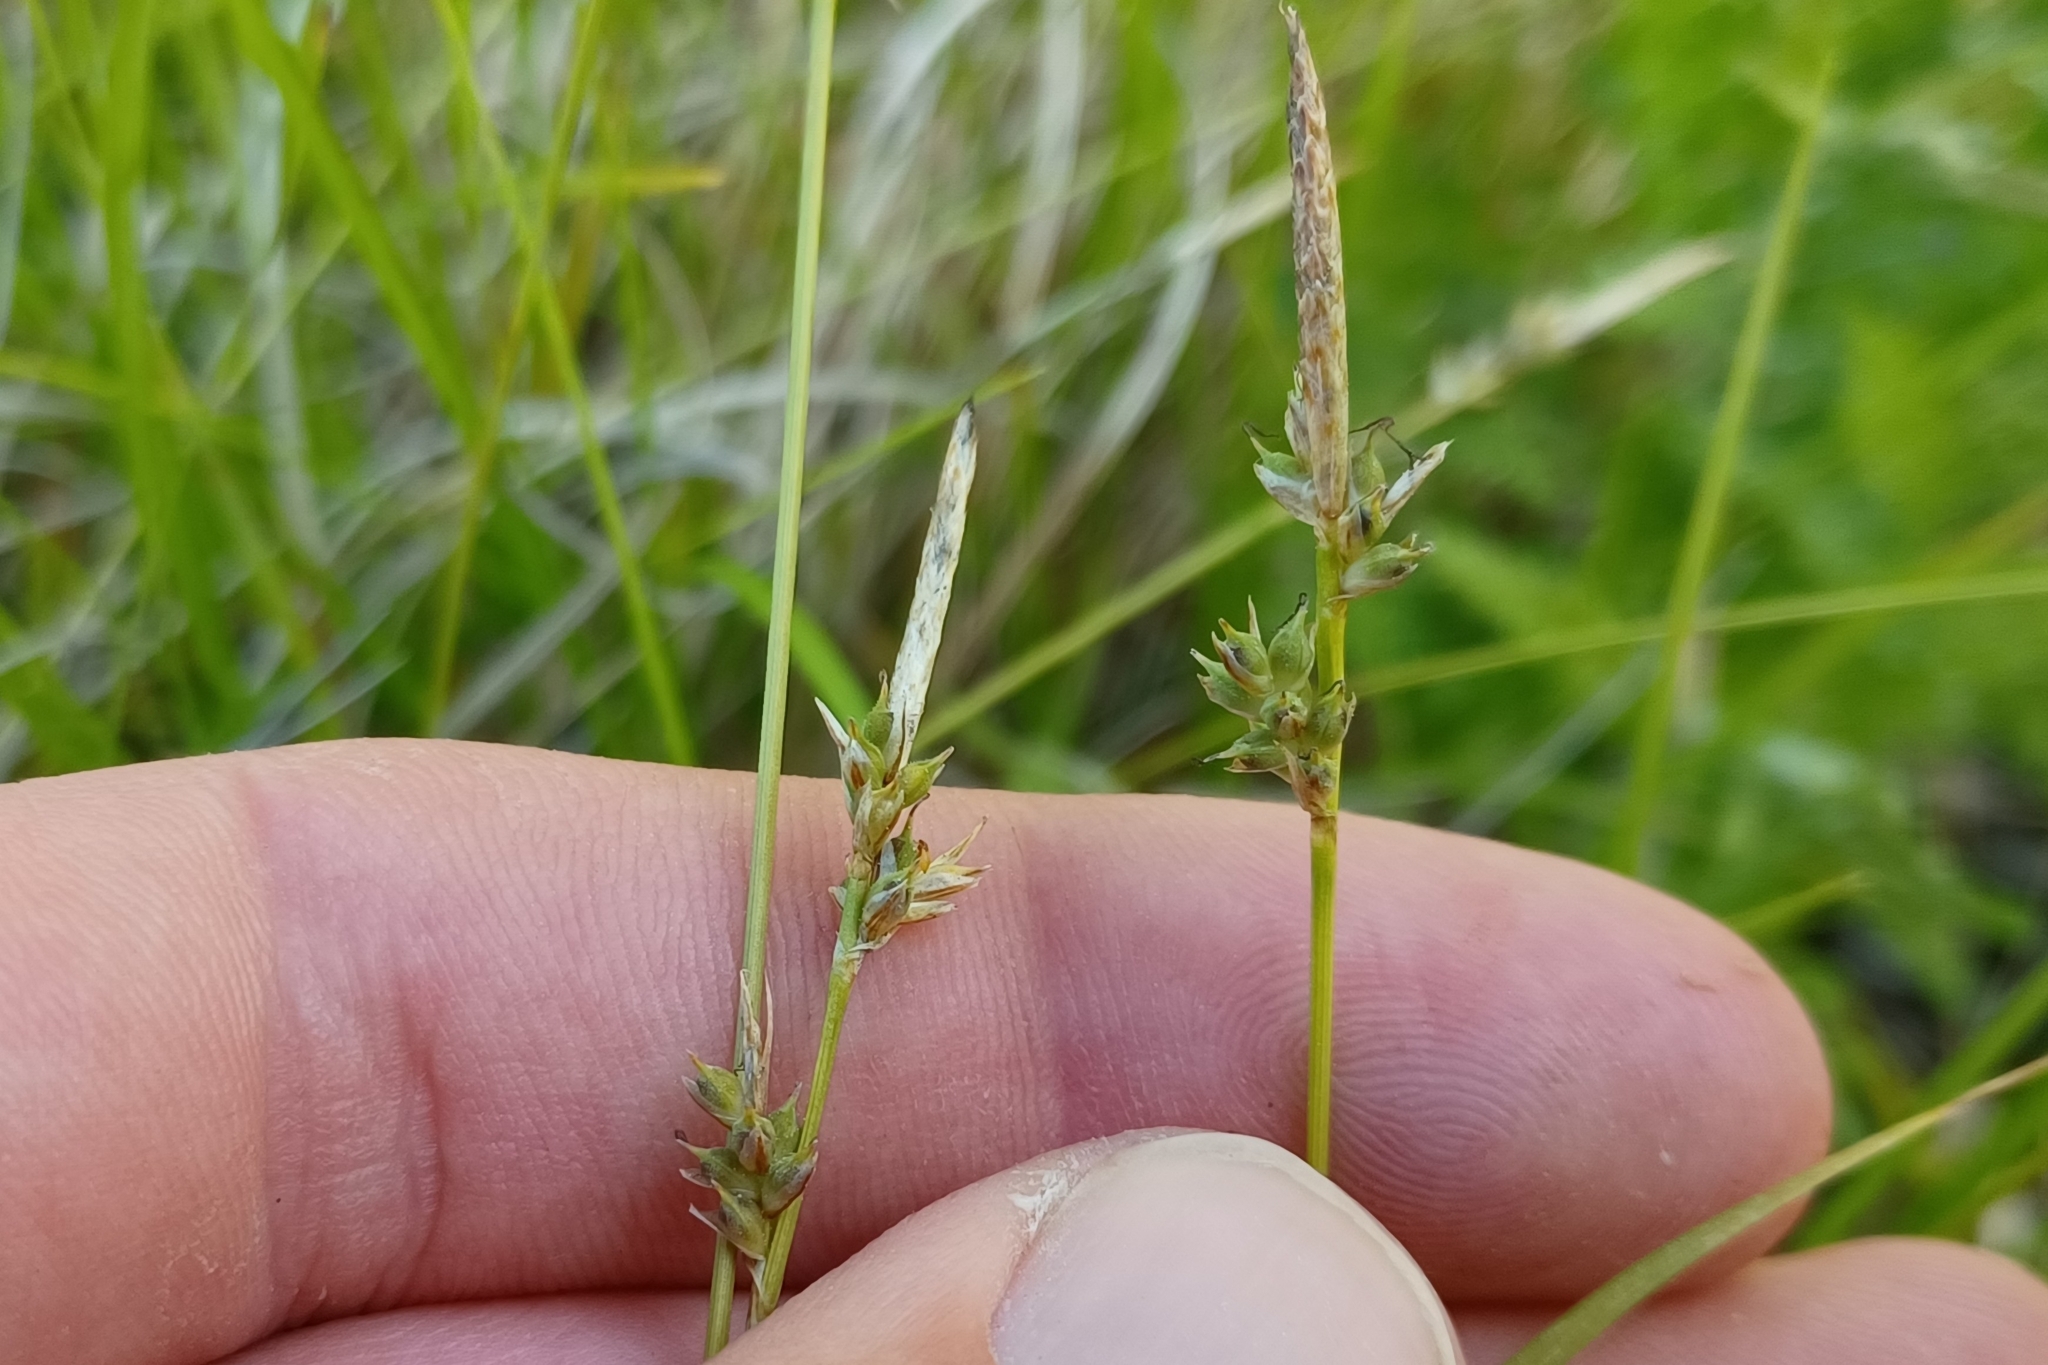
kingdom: Plantae
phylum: Tracheophyta
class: Liliopsida
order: Poales
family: Cyperaceae
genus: Carex
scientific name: Carex lucorum
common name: Blue ridge sedge
